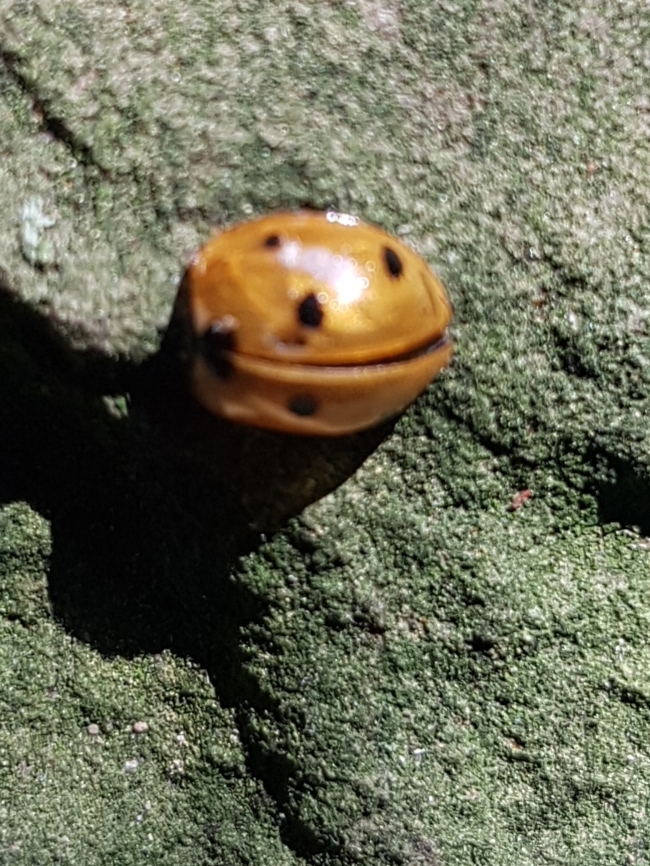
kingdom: Animalia
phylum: Arthropoda
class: Insecta
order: Coleoptera
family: Coccinellidae
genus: Coccinella
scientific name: Coccinella septempunctata
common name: Sevenspotted lady beetle
